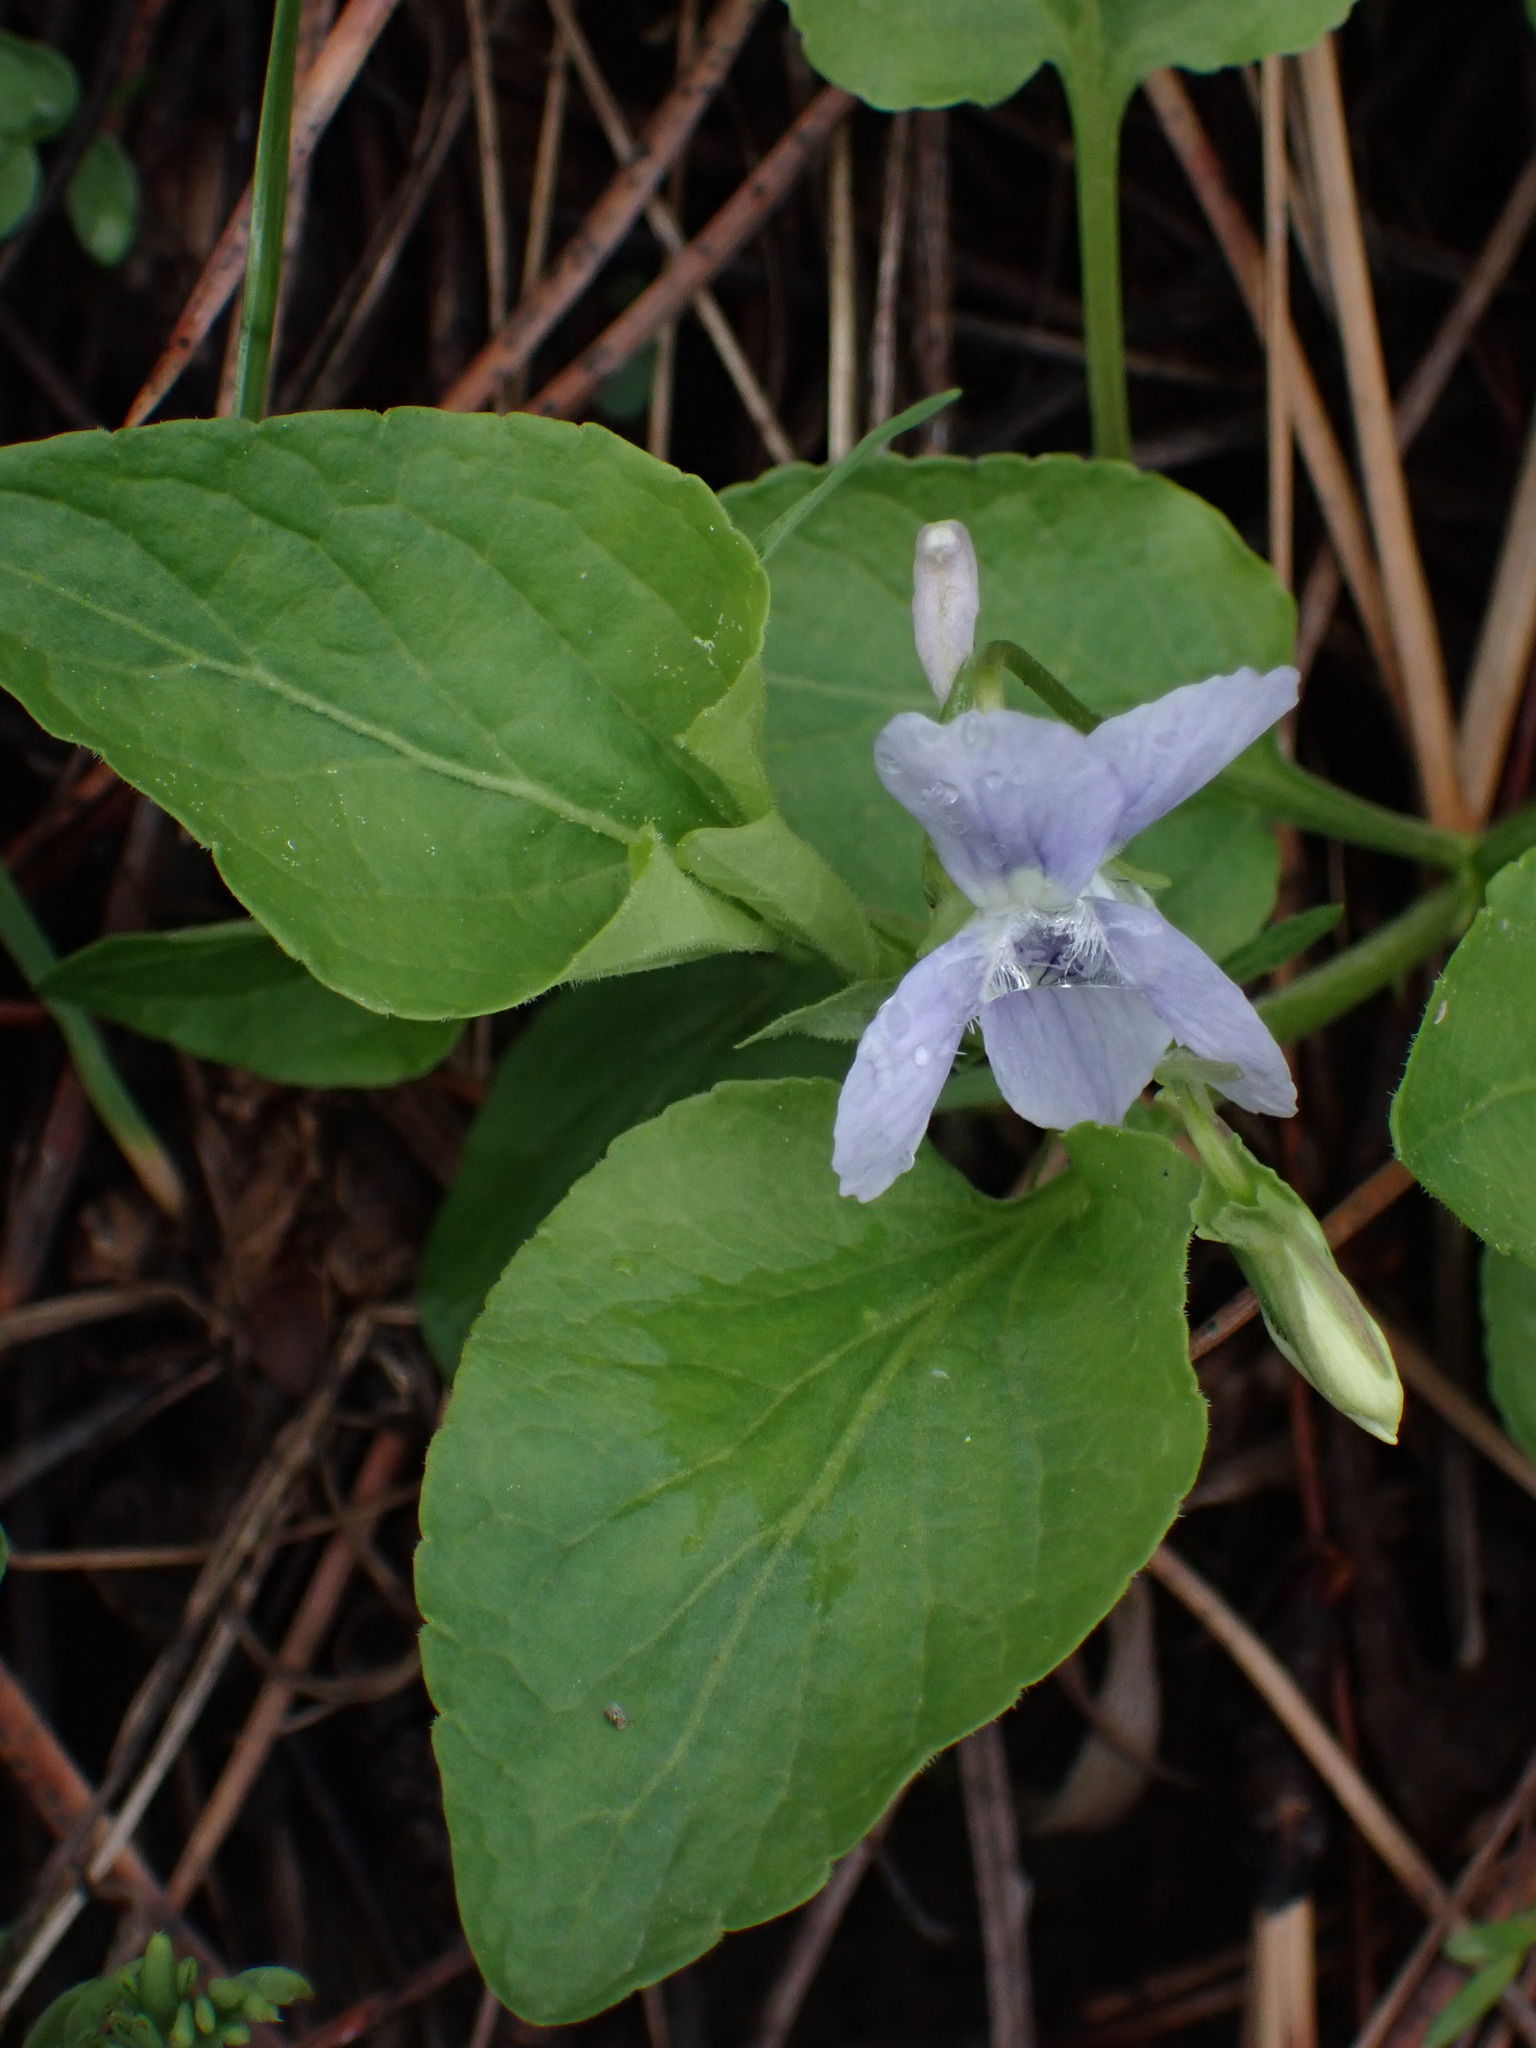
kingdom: Plantae
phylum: Tracheophyta
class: Magnoliopsida
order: Malpighiales
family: Violaceae
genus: Viola
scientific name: Viola adunca
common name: Sand violet
